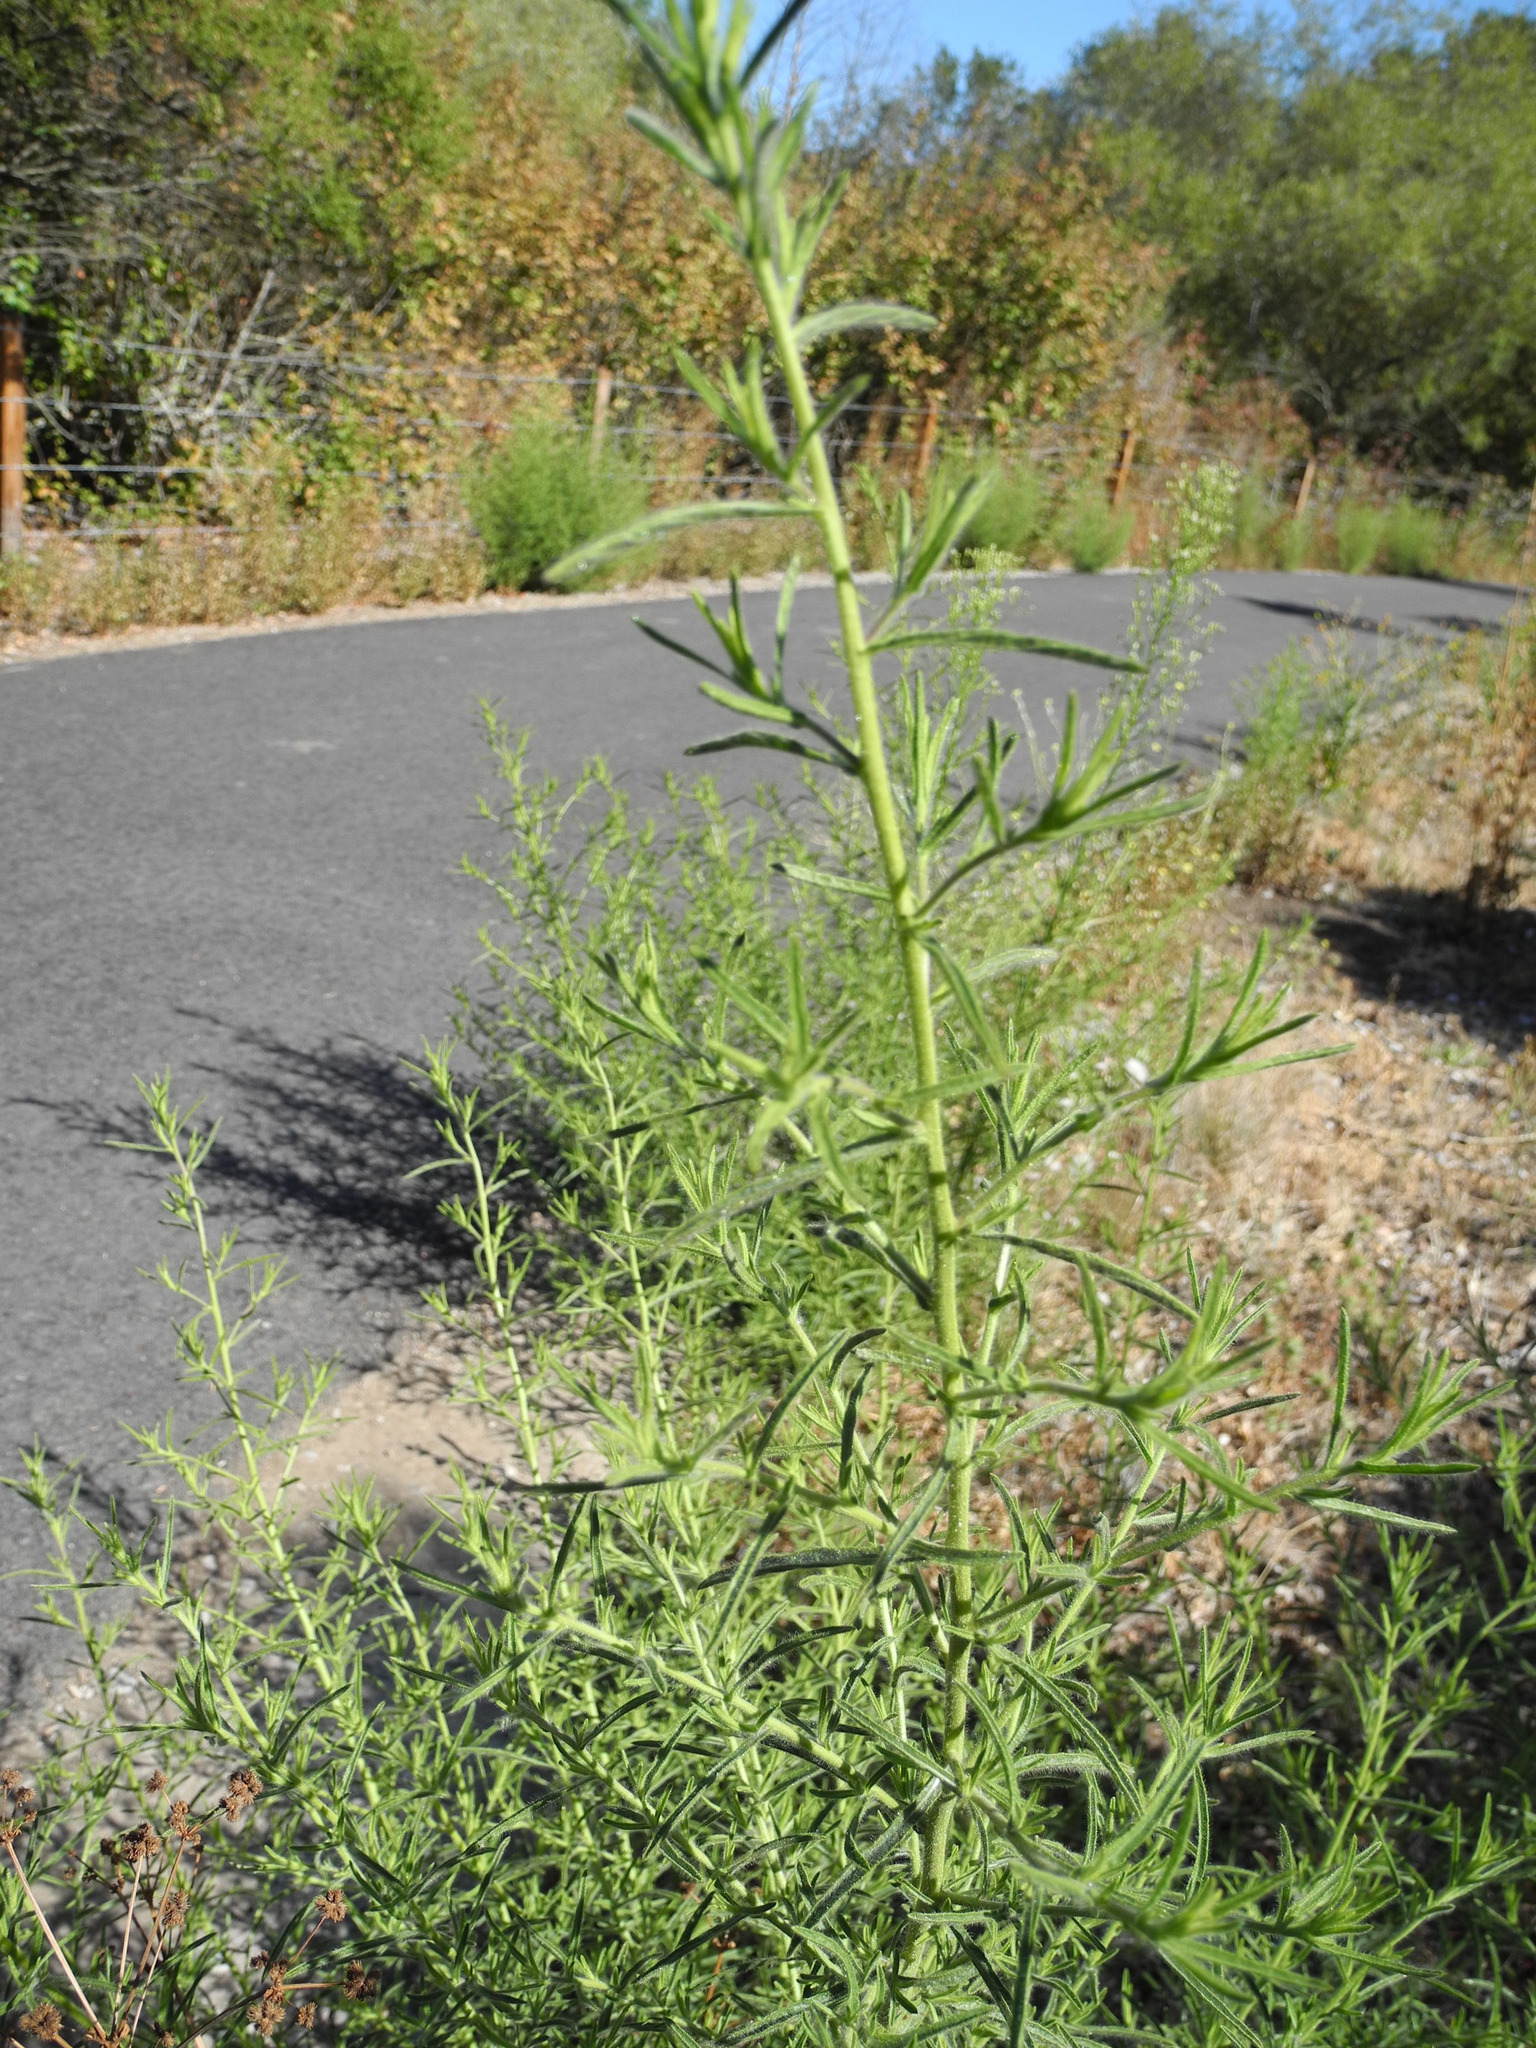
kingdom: Plantae
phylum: Tracheophyta
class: Magnoliopsida
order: Asterales
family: Asteraceae
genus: Dittrichia
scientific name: Dittrichia graveolens
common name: Stinking fleabane
